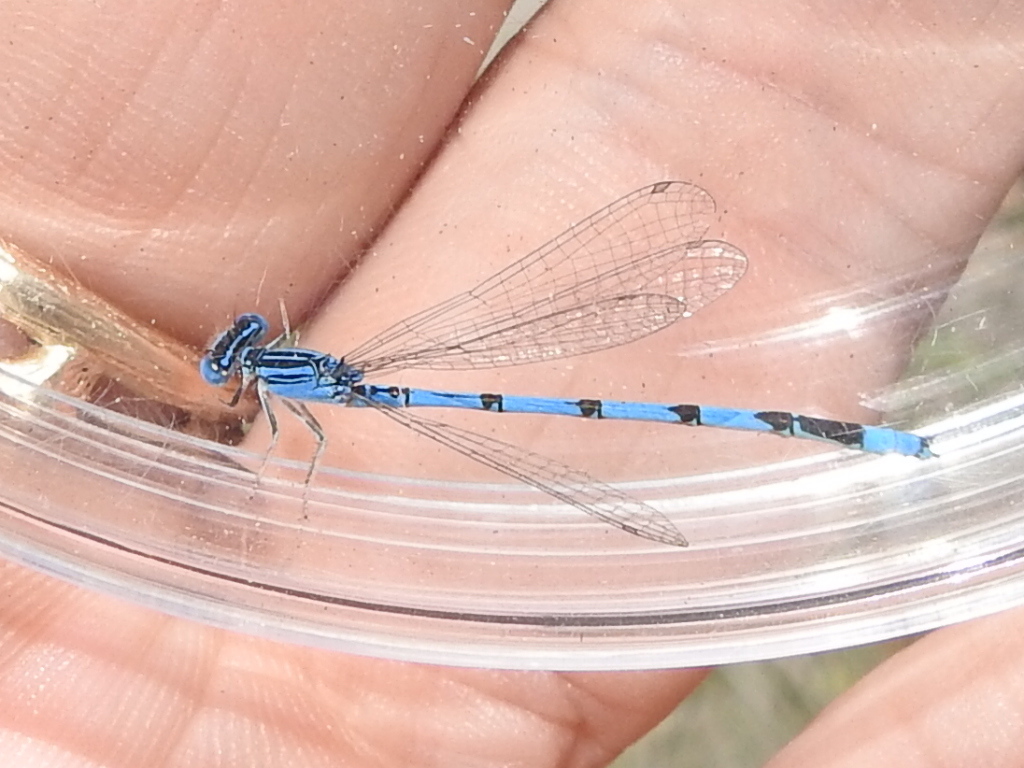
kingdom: Animalia
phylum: Arthropoda
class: Insecta
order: Odonata
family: Coenagrionidae
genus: Enallagma
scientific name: Enallagma basidens
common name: Double-striped bluet
